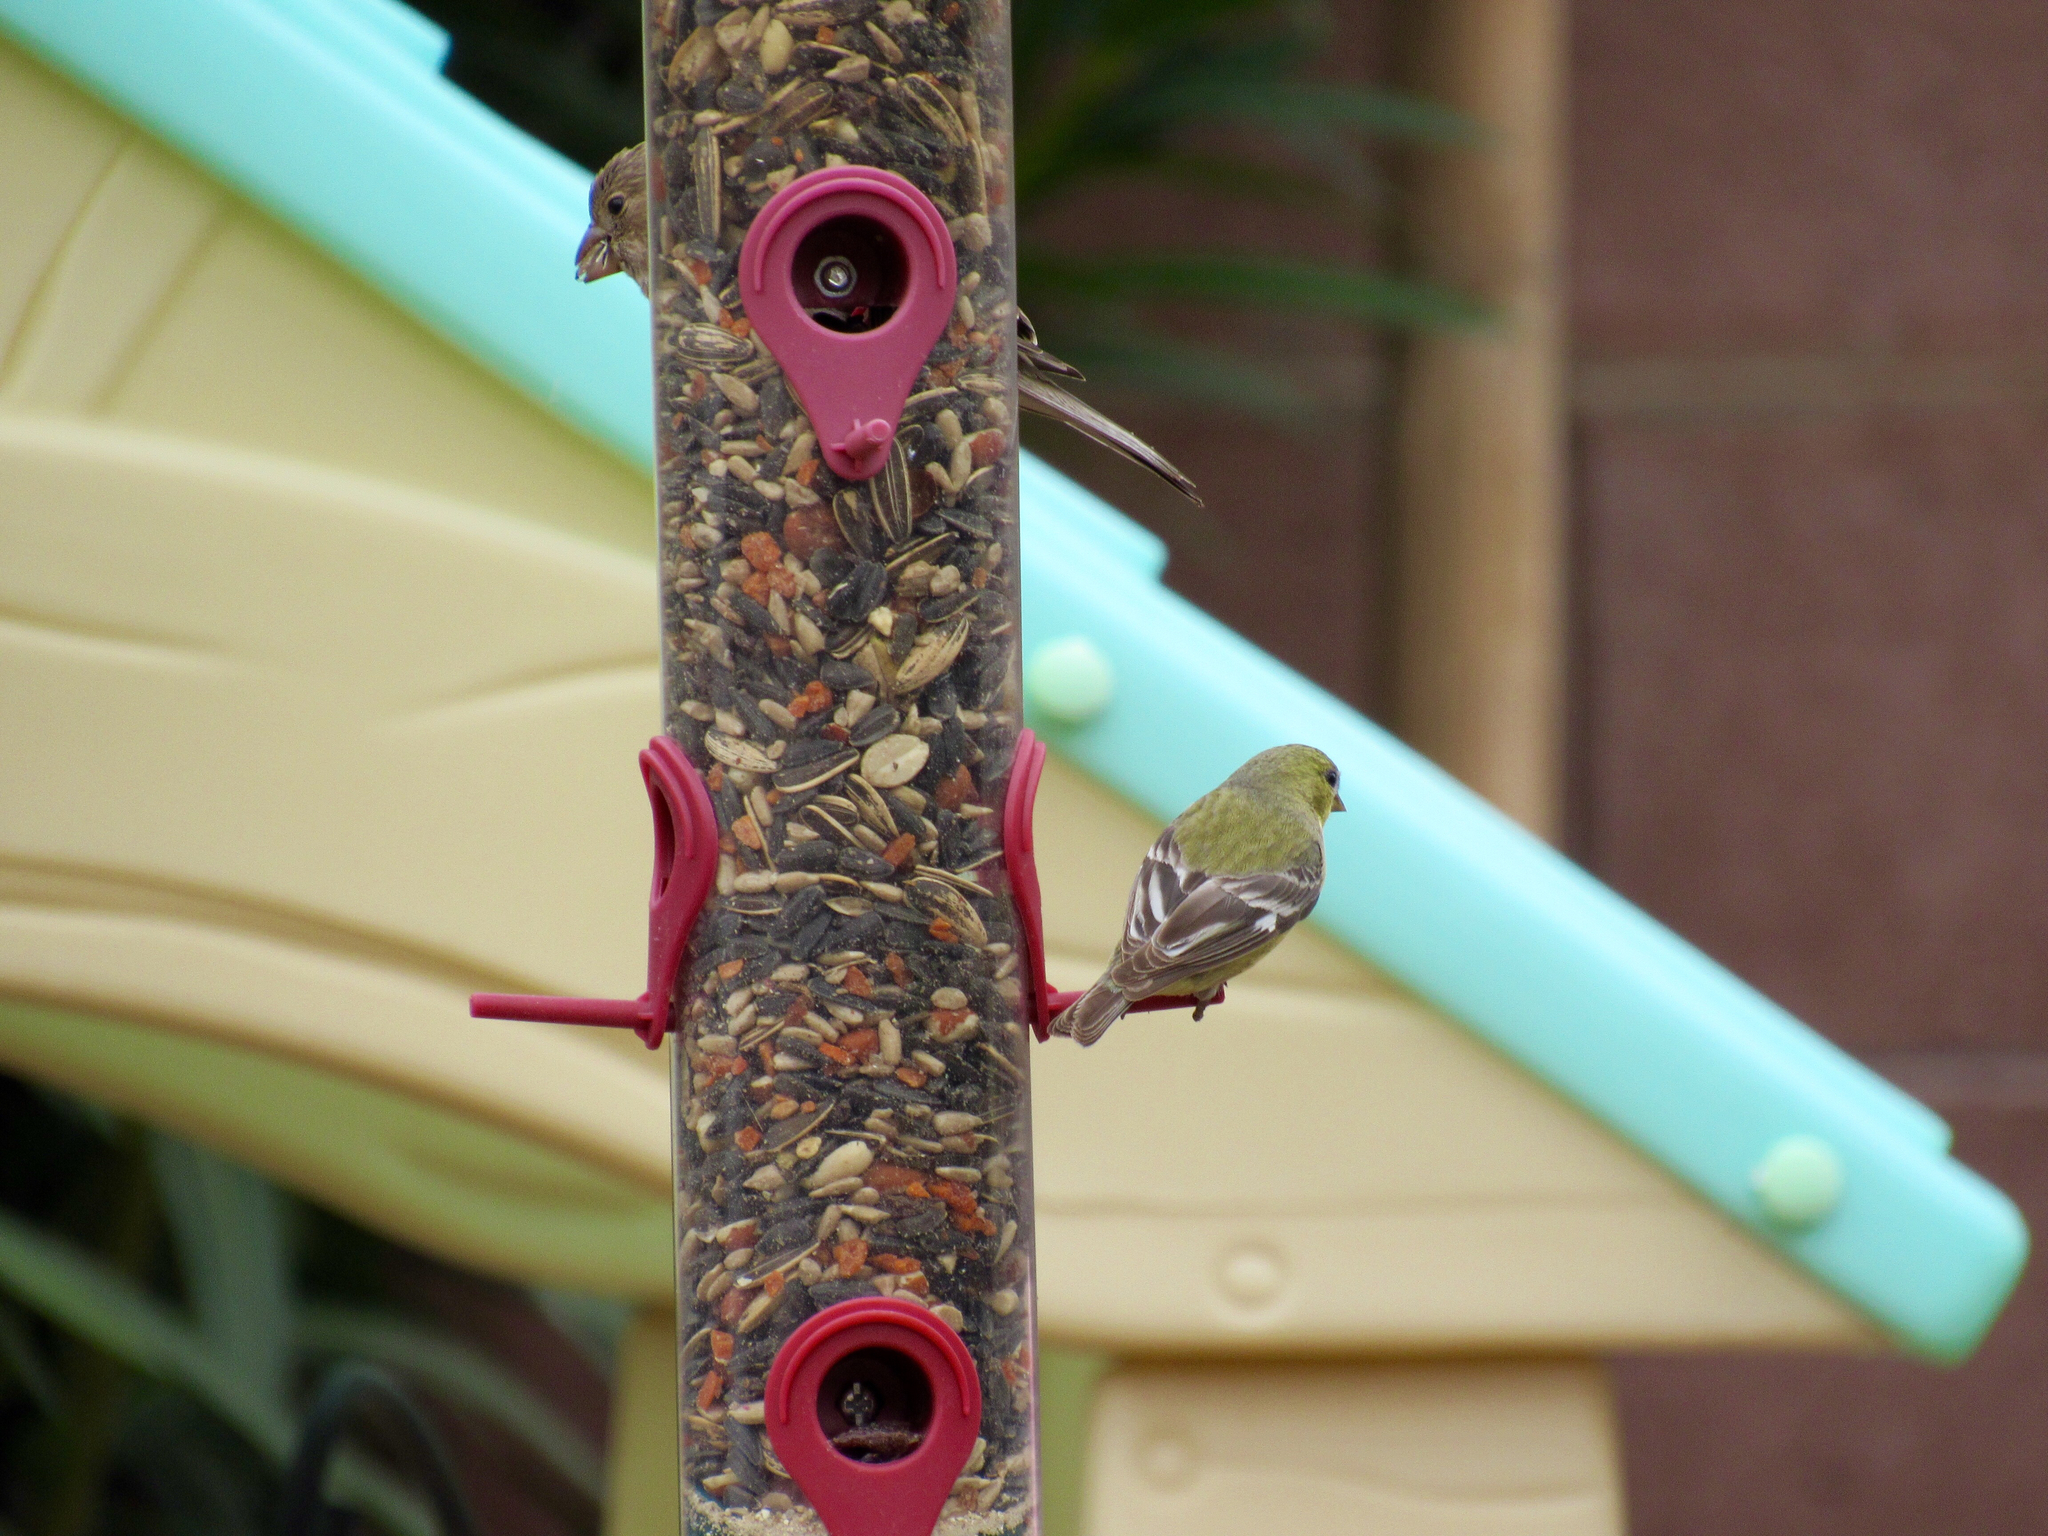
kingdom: Animalia
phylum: Chordata
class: Aves
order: Passeriformes
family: Fringillidae
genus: Spinus
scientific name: Spinus psaltria
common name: Lesser goldfinch
